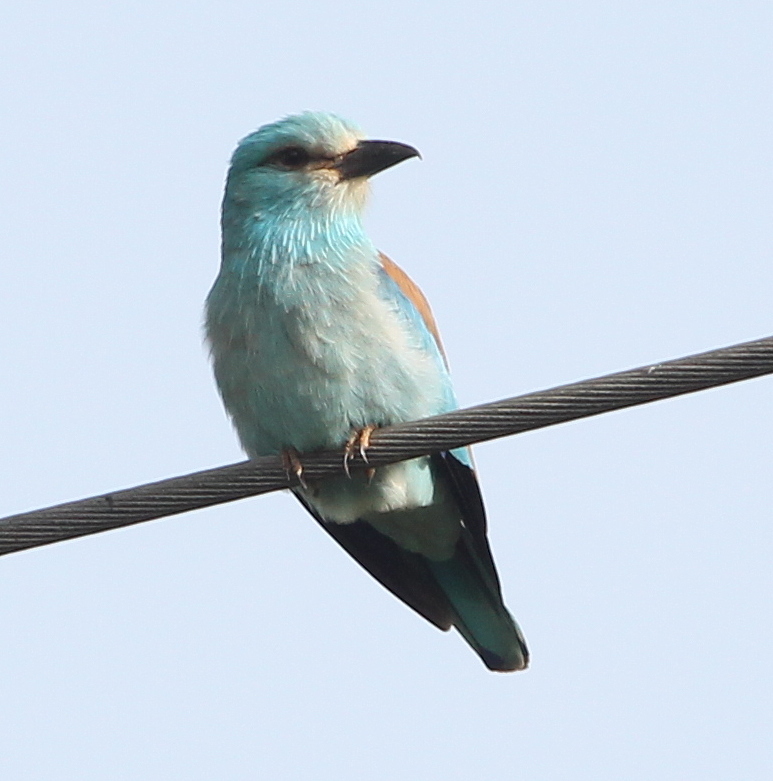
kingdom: Animalia
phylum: Chordata
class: Aves
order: Coraciiformes
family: Coraciidae
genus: Coracias
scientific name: Coracias garrulus
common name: European roller
